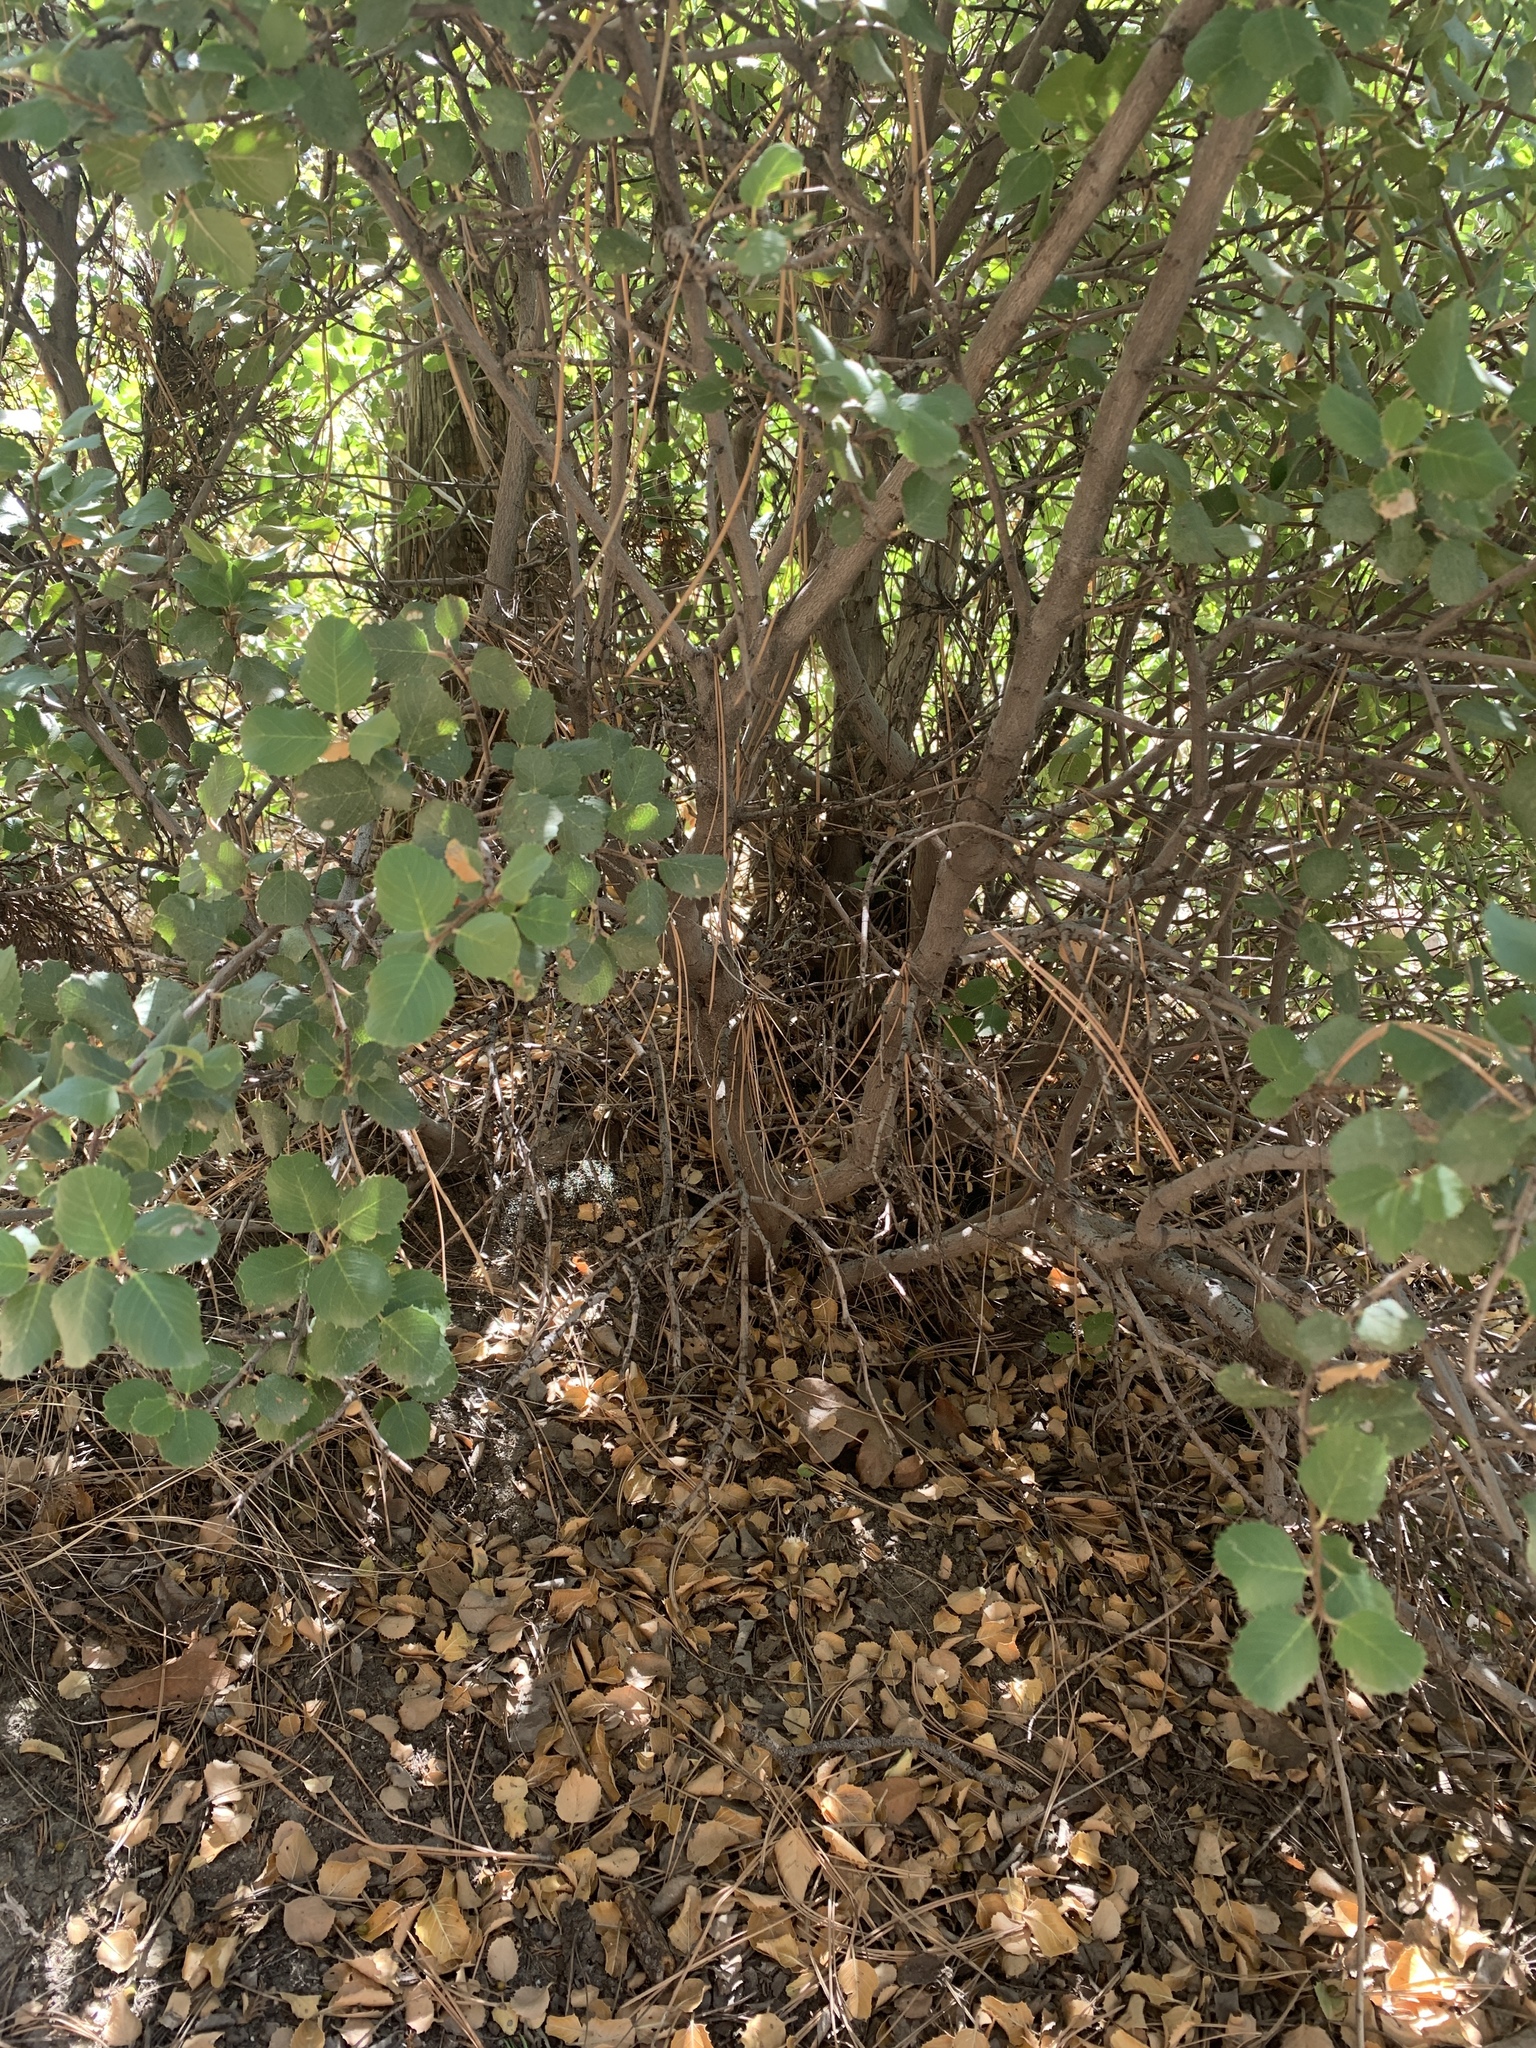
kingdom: Plantae
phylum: Tracheophyta
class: Magnoliopsida
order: Rosales
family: Rhamnaceae
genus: Endotropis
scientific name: Endotropis crocea
